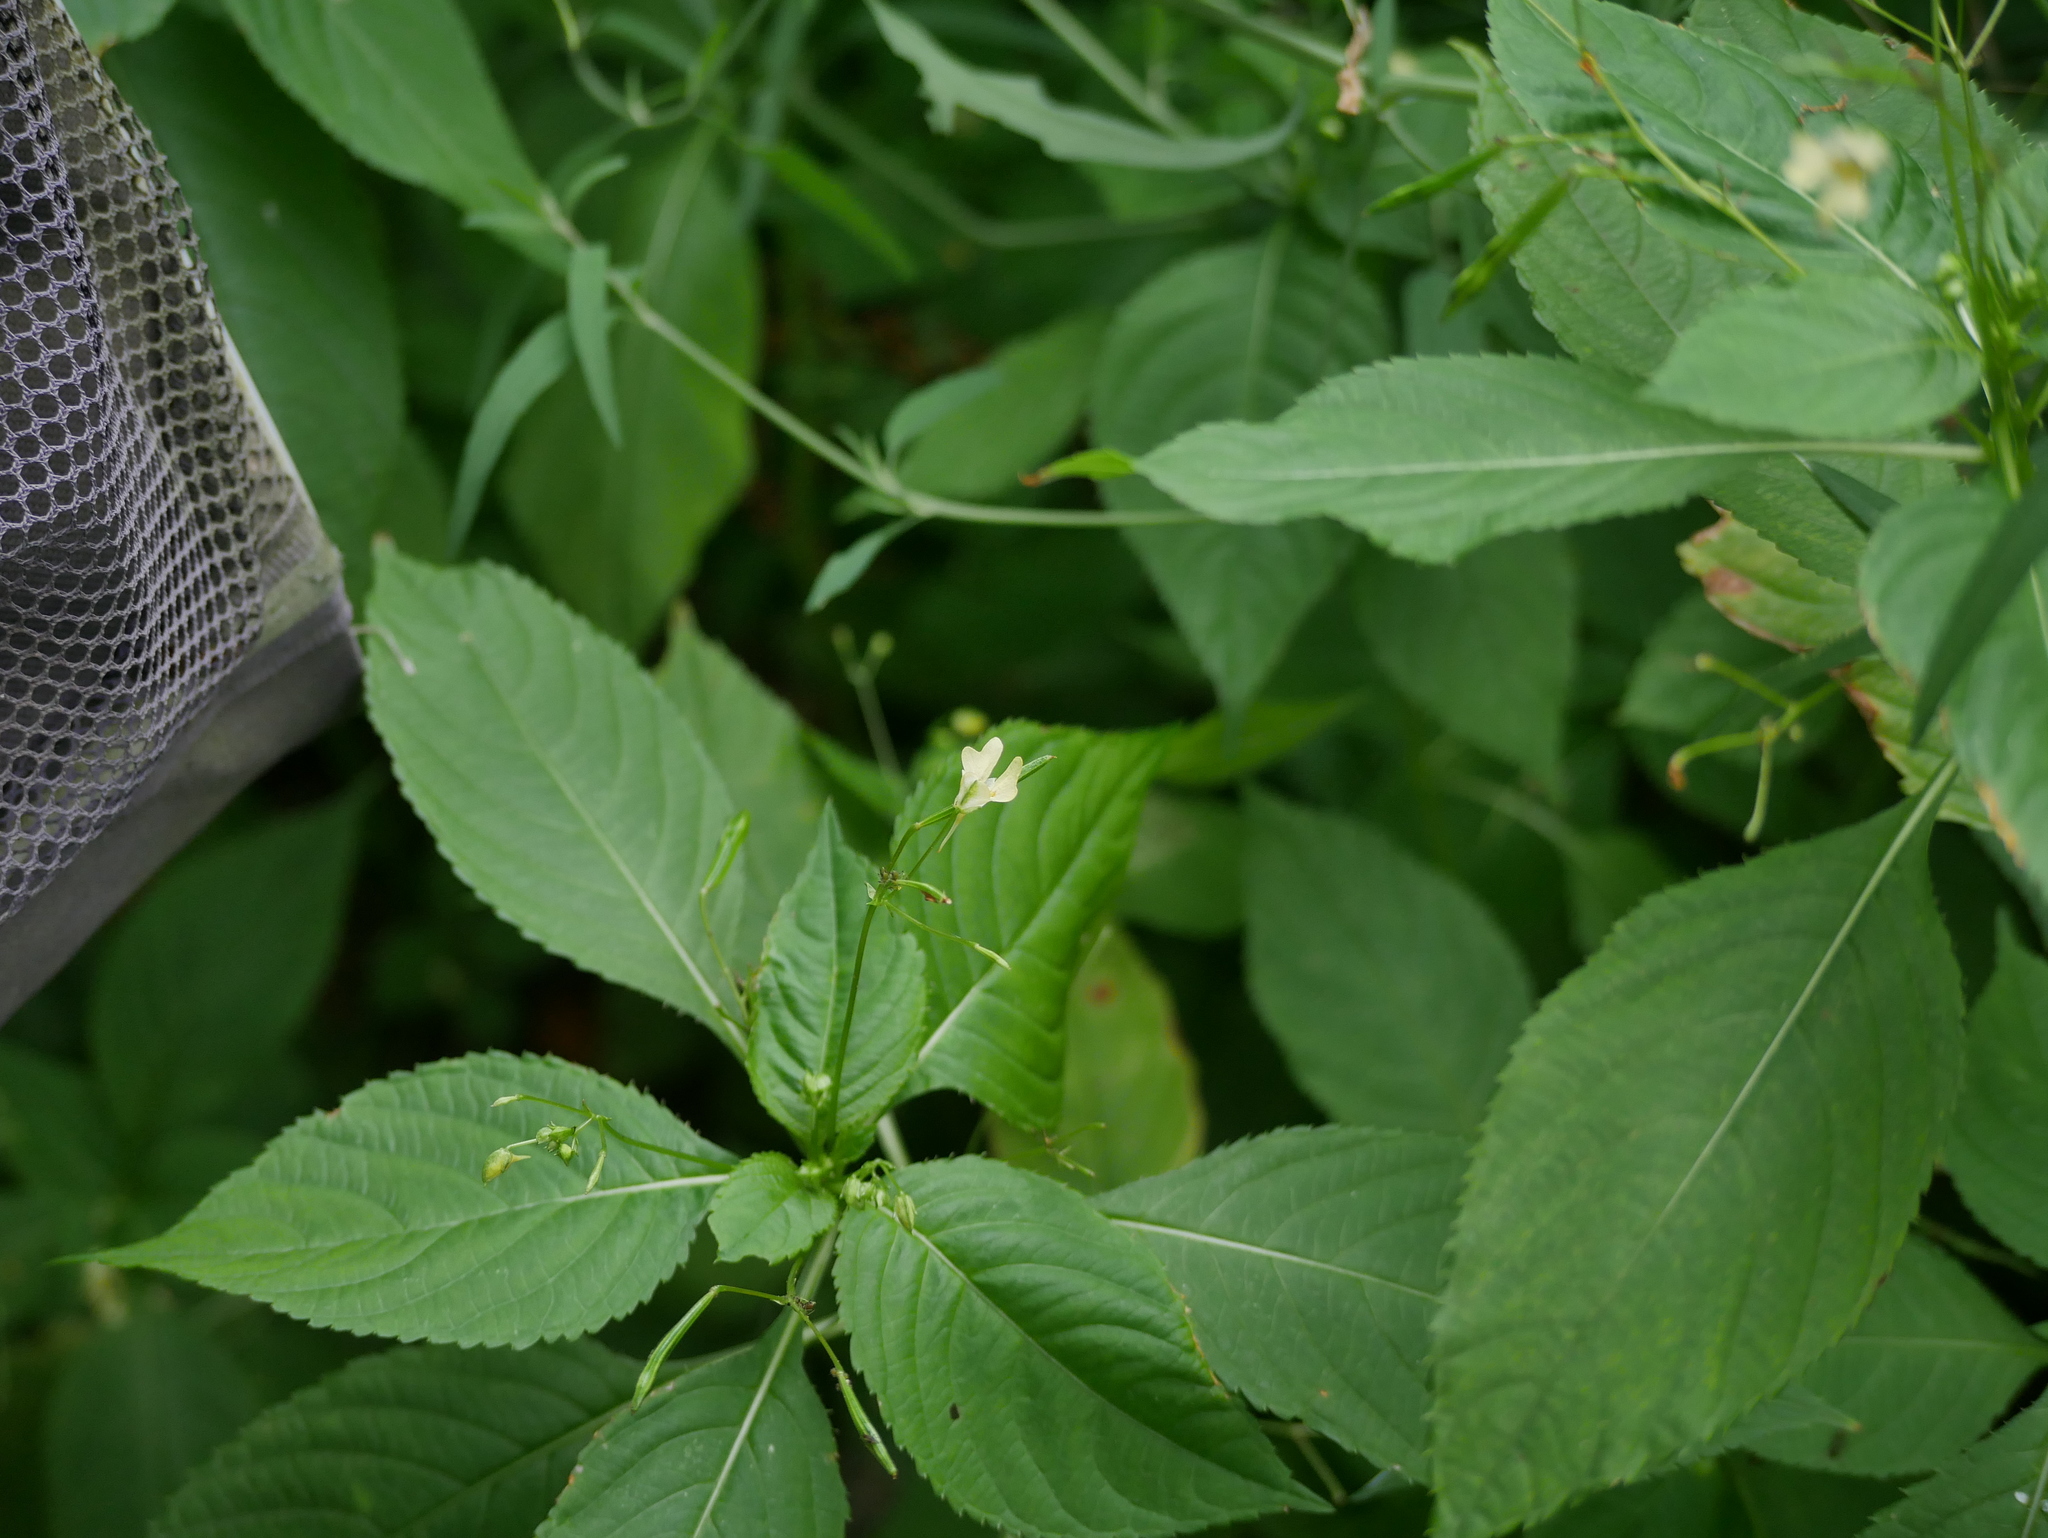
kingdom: Plantae
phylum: Tracheophyta
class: Magnoliopsida
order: Ericales
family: Balsaminaceae
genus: Impatiens
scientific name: Impatiens parviflora
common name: Small balsam
